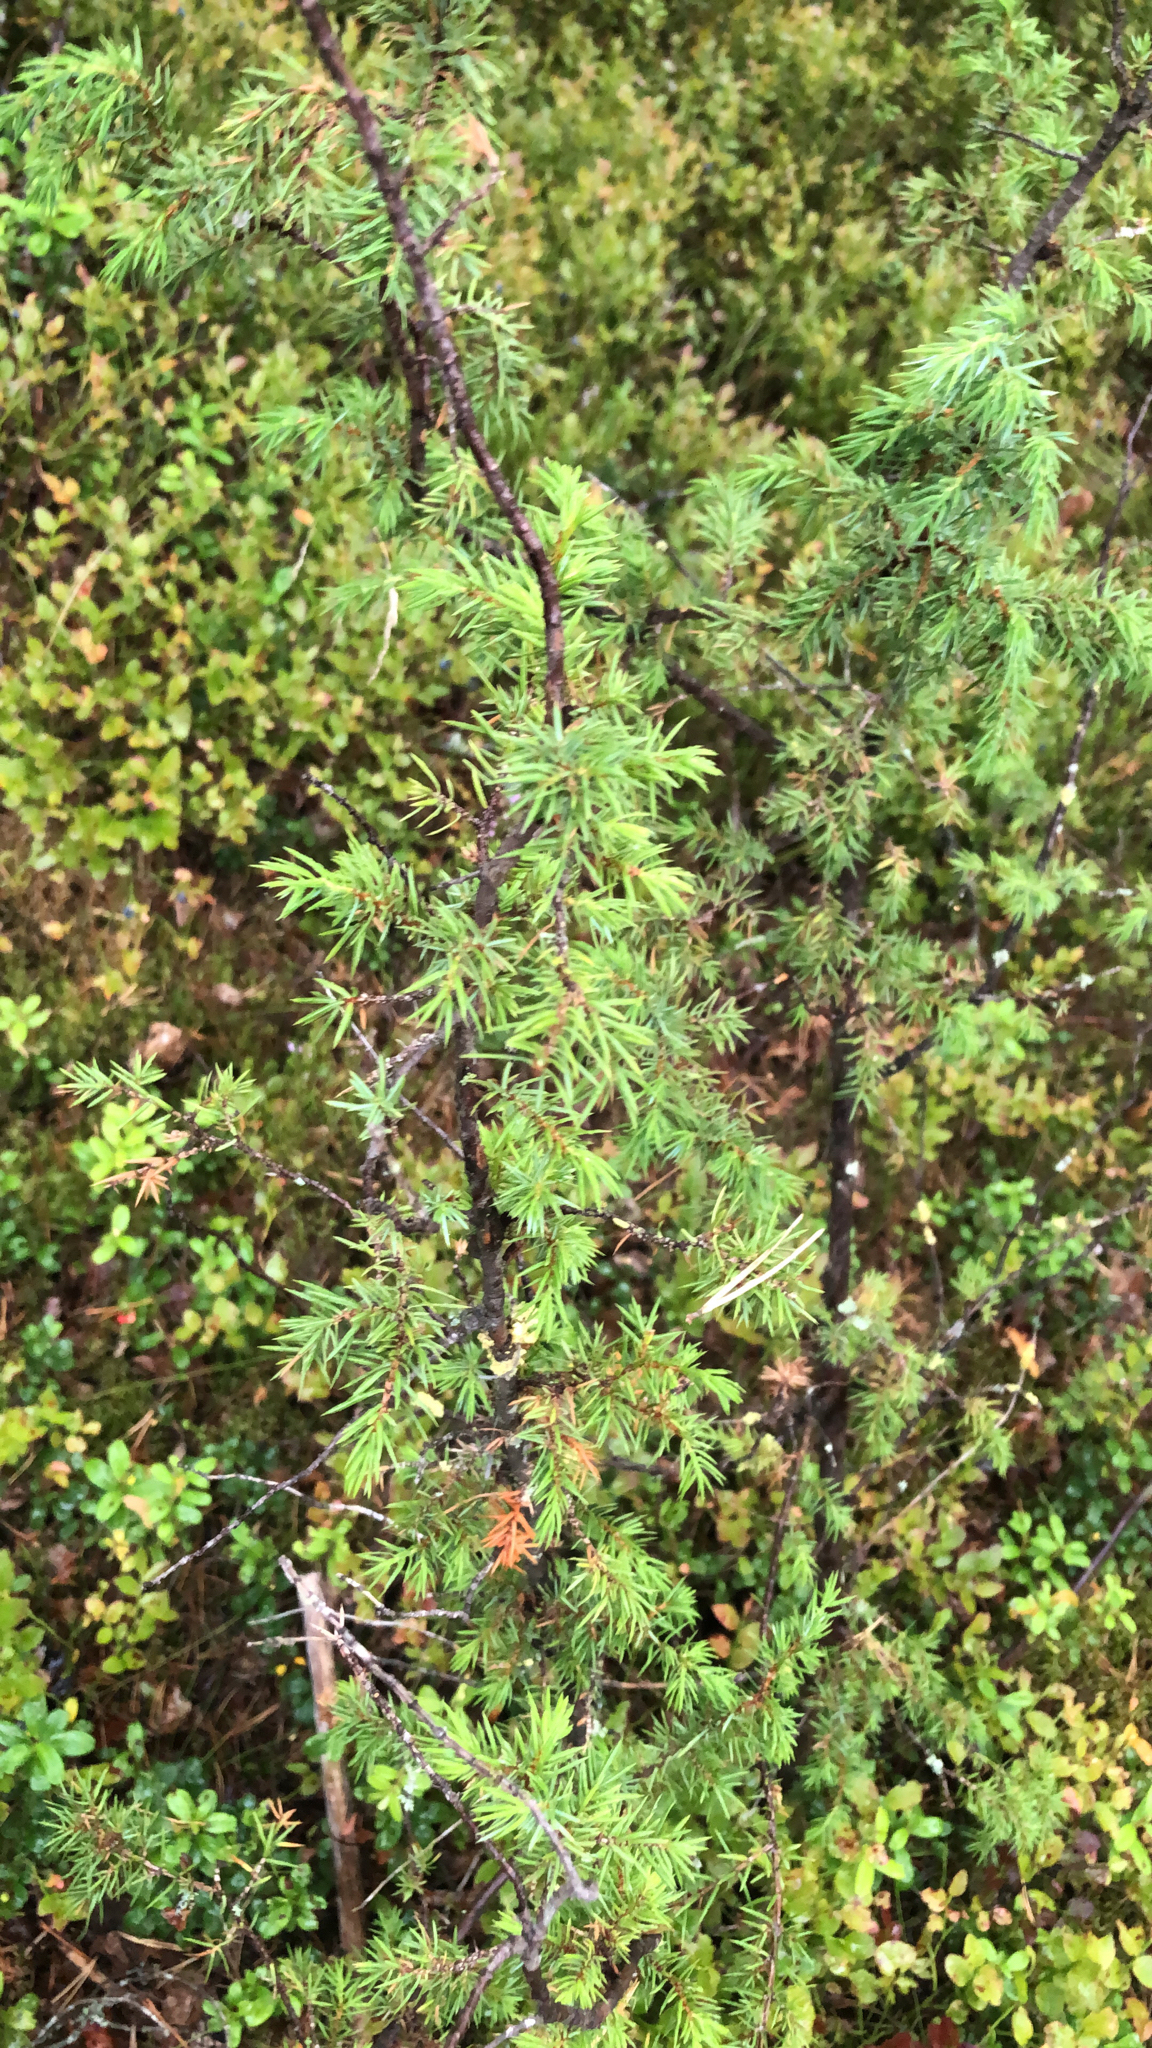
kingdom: Plantae
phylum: Tracheophyta
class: Pinopsida
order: Pinales
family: Cupressaceae
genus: Juniperus
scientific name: Juniperus communis
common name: Common juniper
